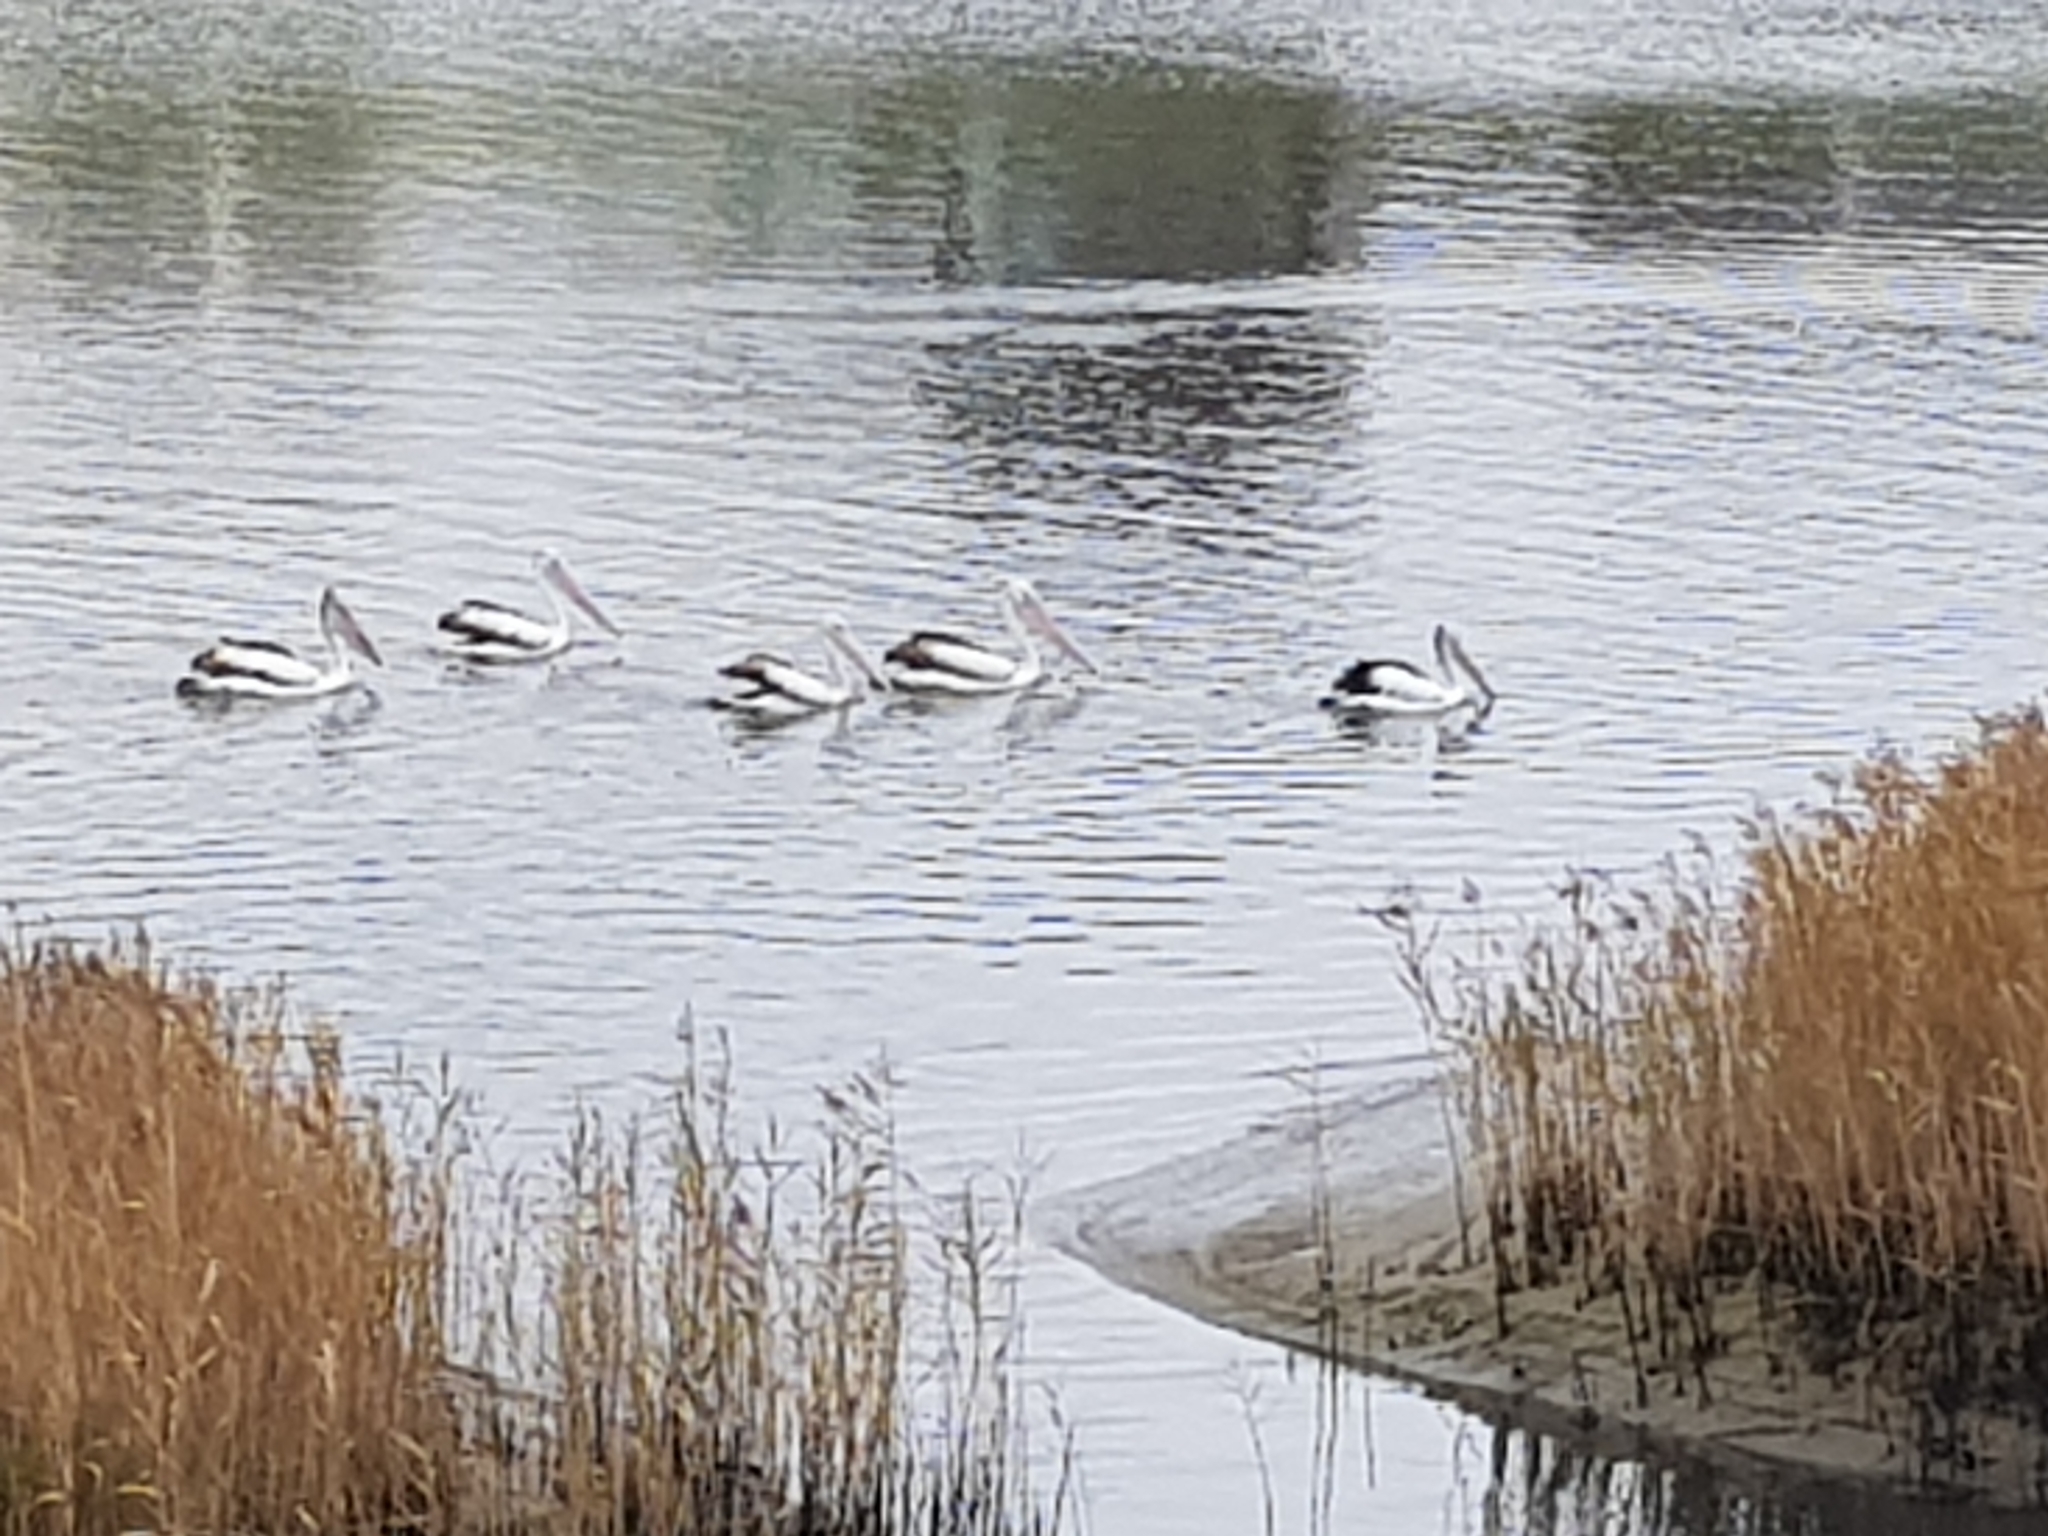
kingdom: Animalia
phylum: Chordata
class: Aves
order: Pelecaniformes
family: Pelecanidae
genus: Pelecanus
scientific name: Pelecanus conspicillatus
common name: Australian pelican
